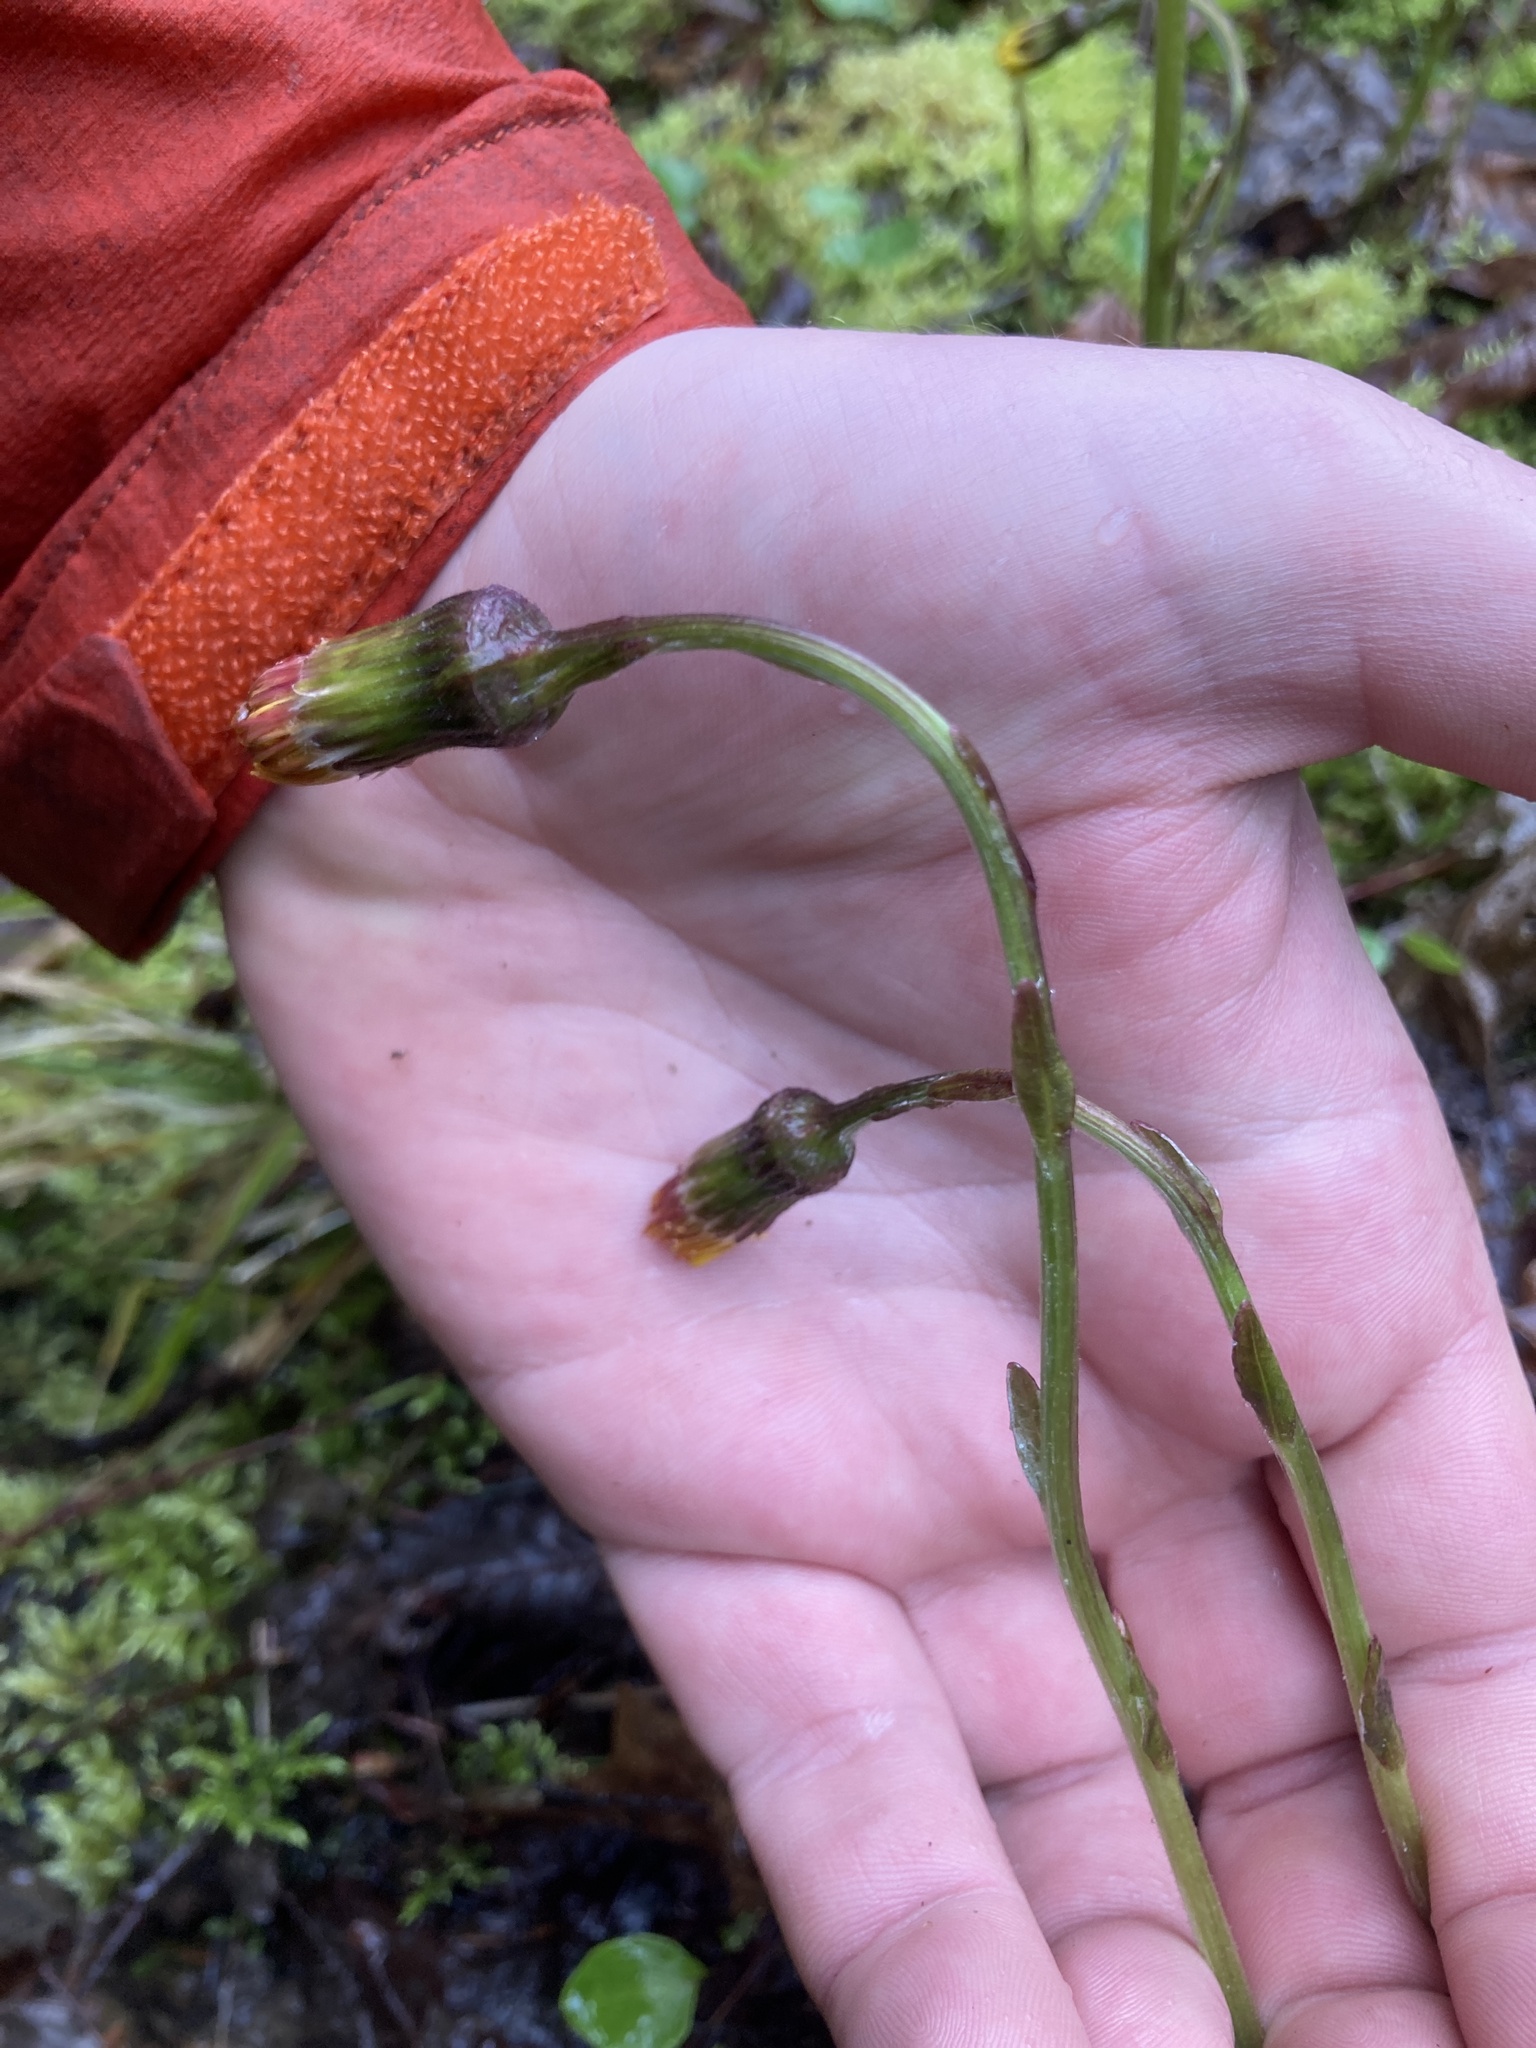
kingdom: Plantae
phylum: Tracheophyta
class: Magnoliopsida
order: Asterales
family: Asteraceae
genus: Tussilago
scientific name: Tussilago farfara
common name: Coltsfoot
